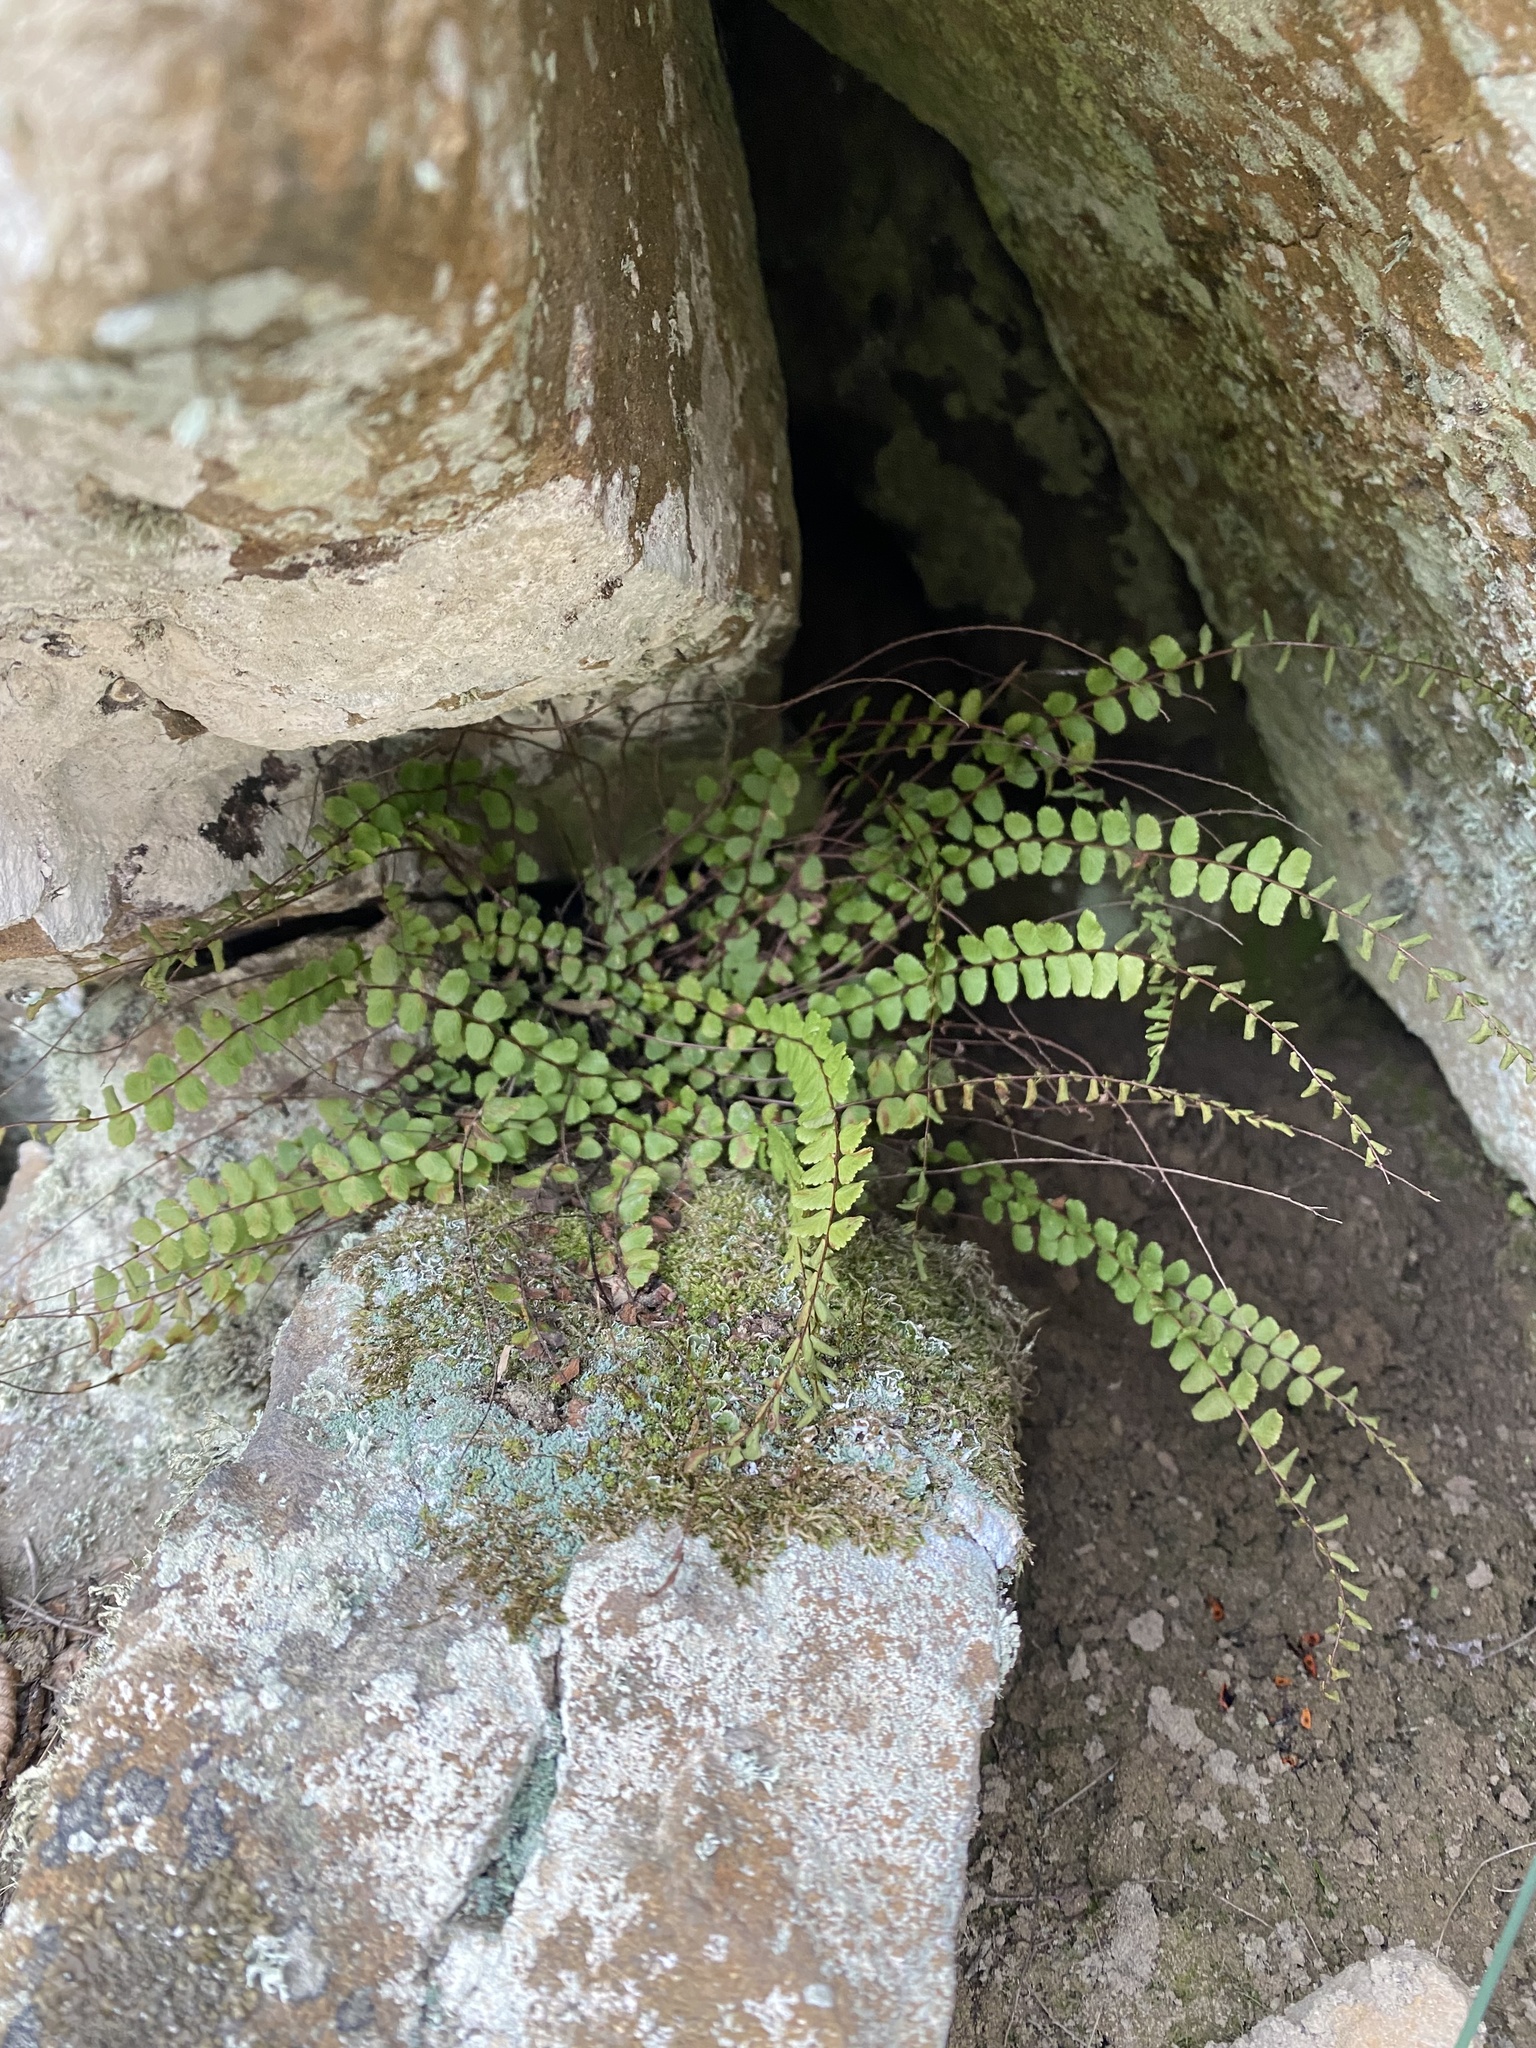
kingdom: Plantae
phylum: Tracheophyta
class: Polypodiopsida
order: Polypodiales
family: Aspleniaceae
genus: Asplenium
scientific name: Asplenium trichomanes
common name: Maidenhair spleenwort
